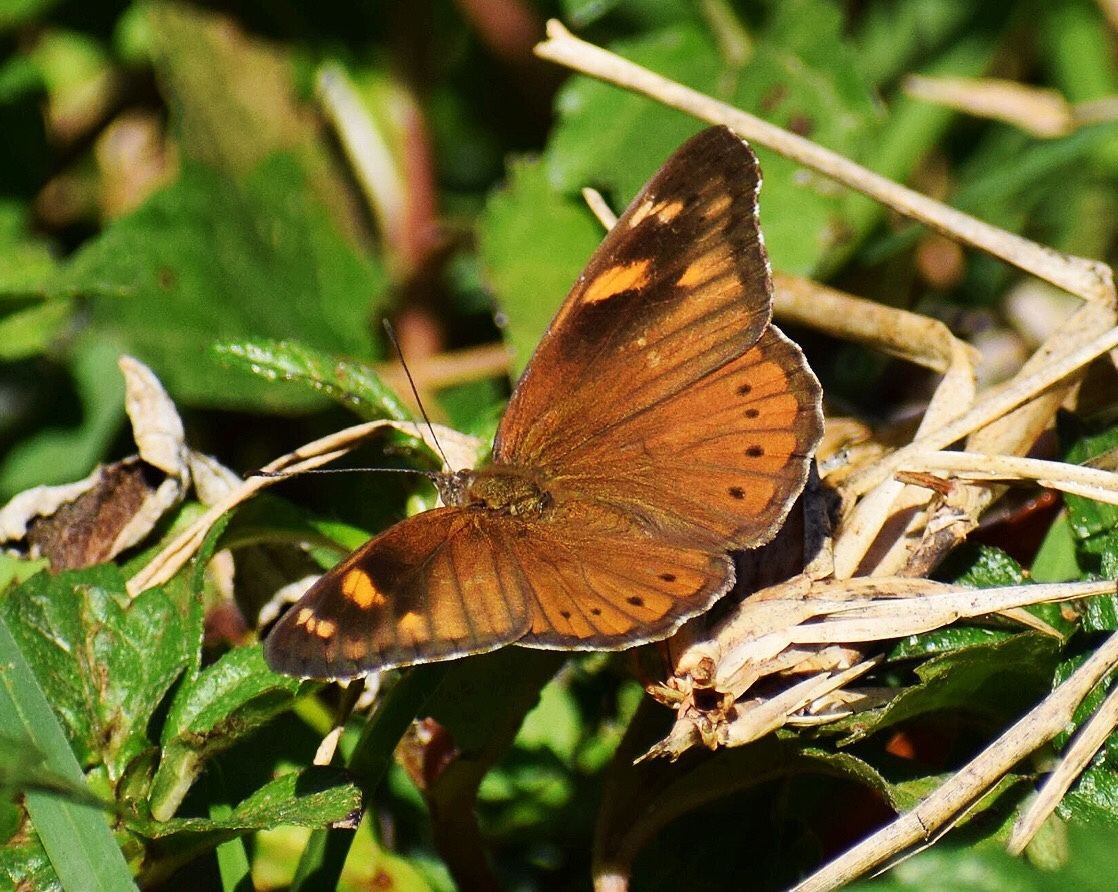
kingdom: Animalia
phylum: Arthropoda
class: Insecta
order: Lepidoptera
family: Nymphalidae
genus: Asterope
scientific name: Asterope boisduvali
